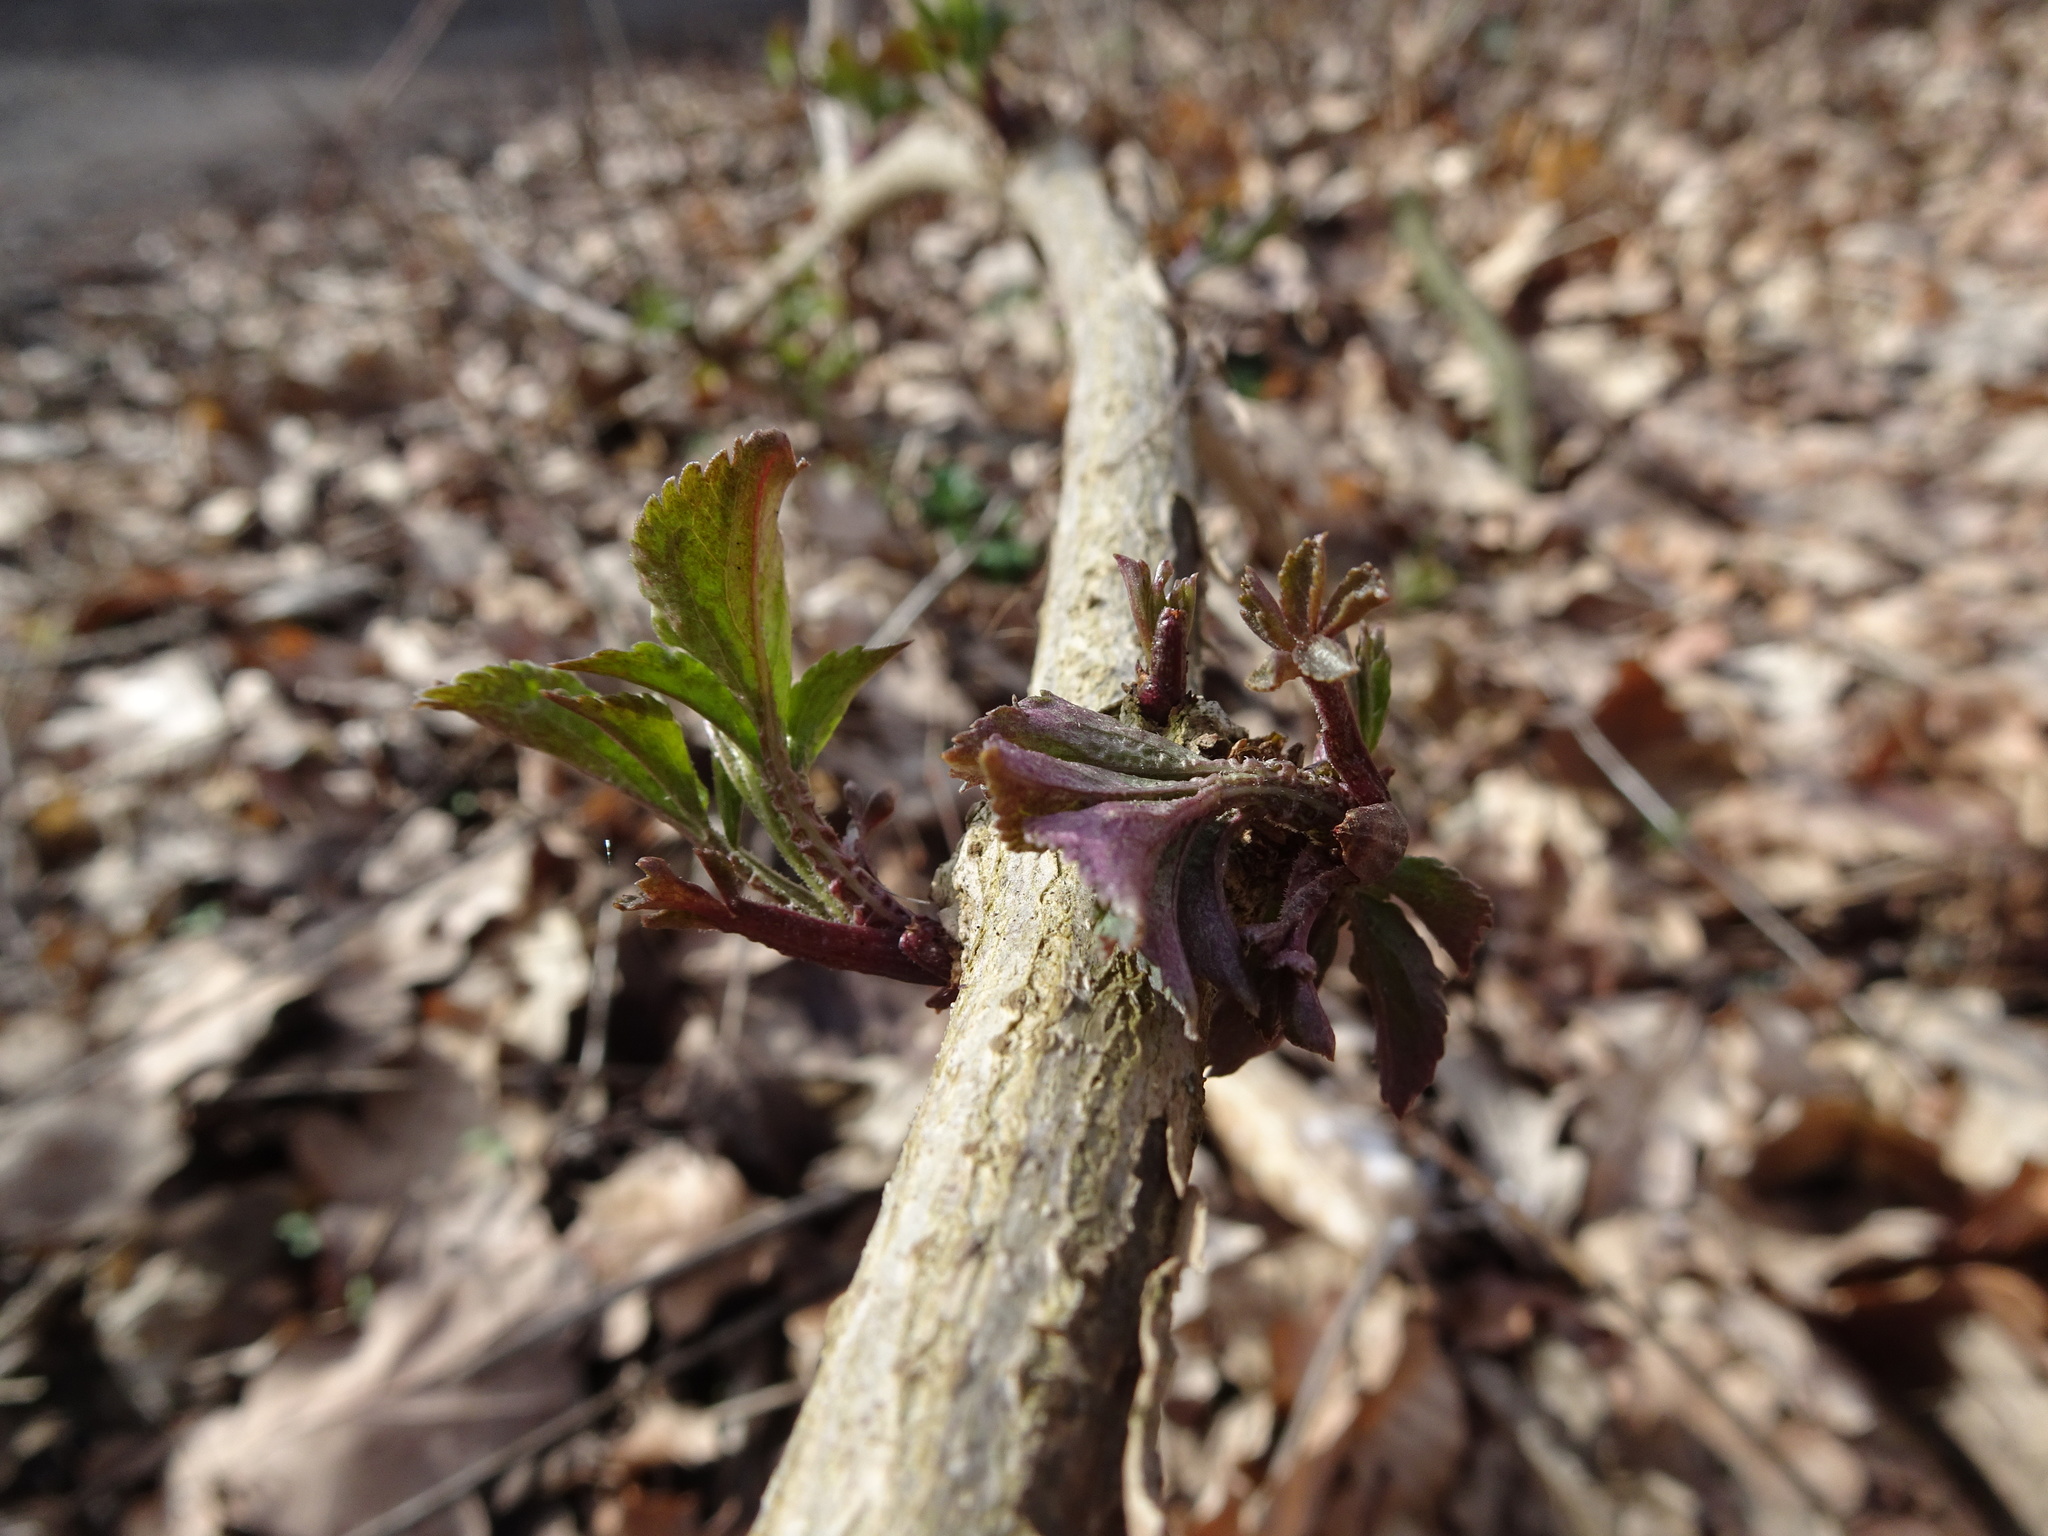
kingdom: Plantae
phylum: Tracheophyta
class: Magnoliopsida
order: Dipsacales
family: Viburnaceae
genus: Sambucus
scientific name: Sambucus nigra
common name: Elder
